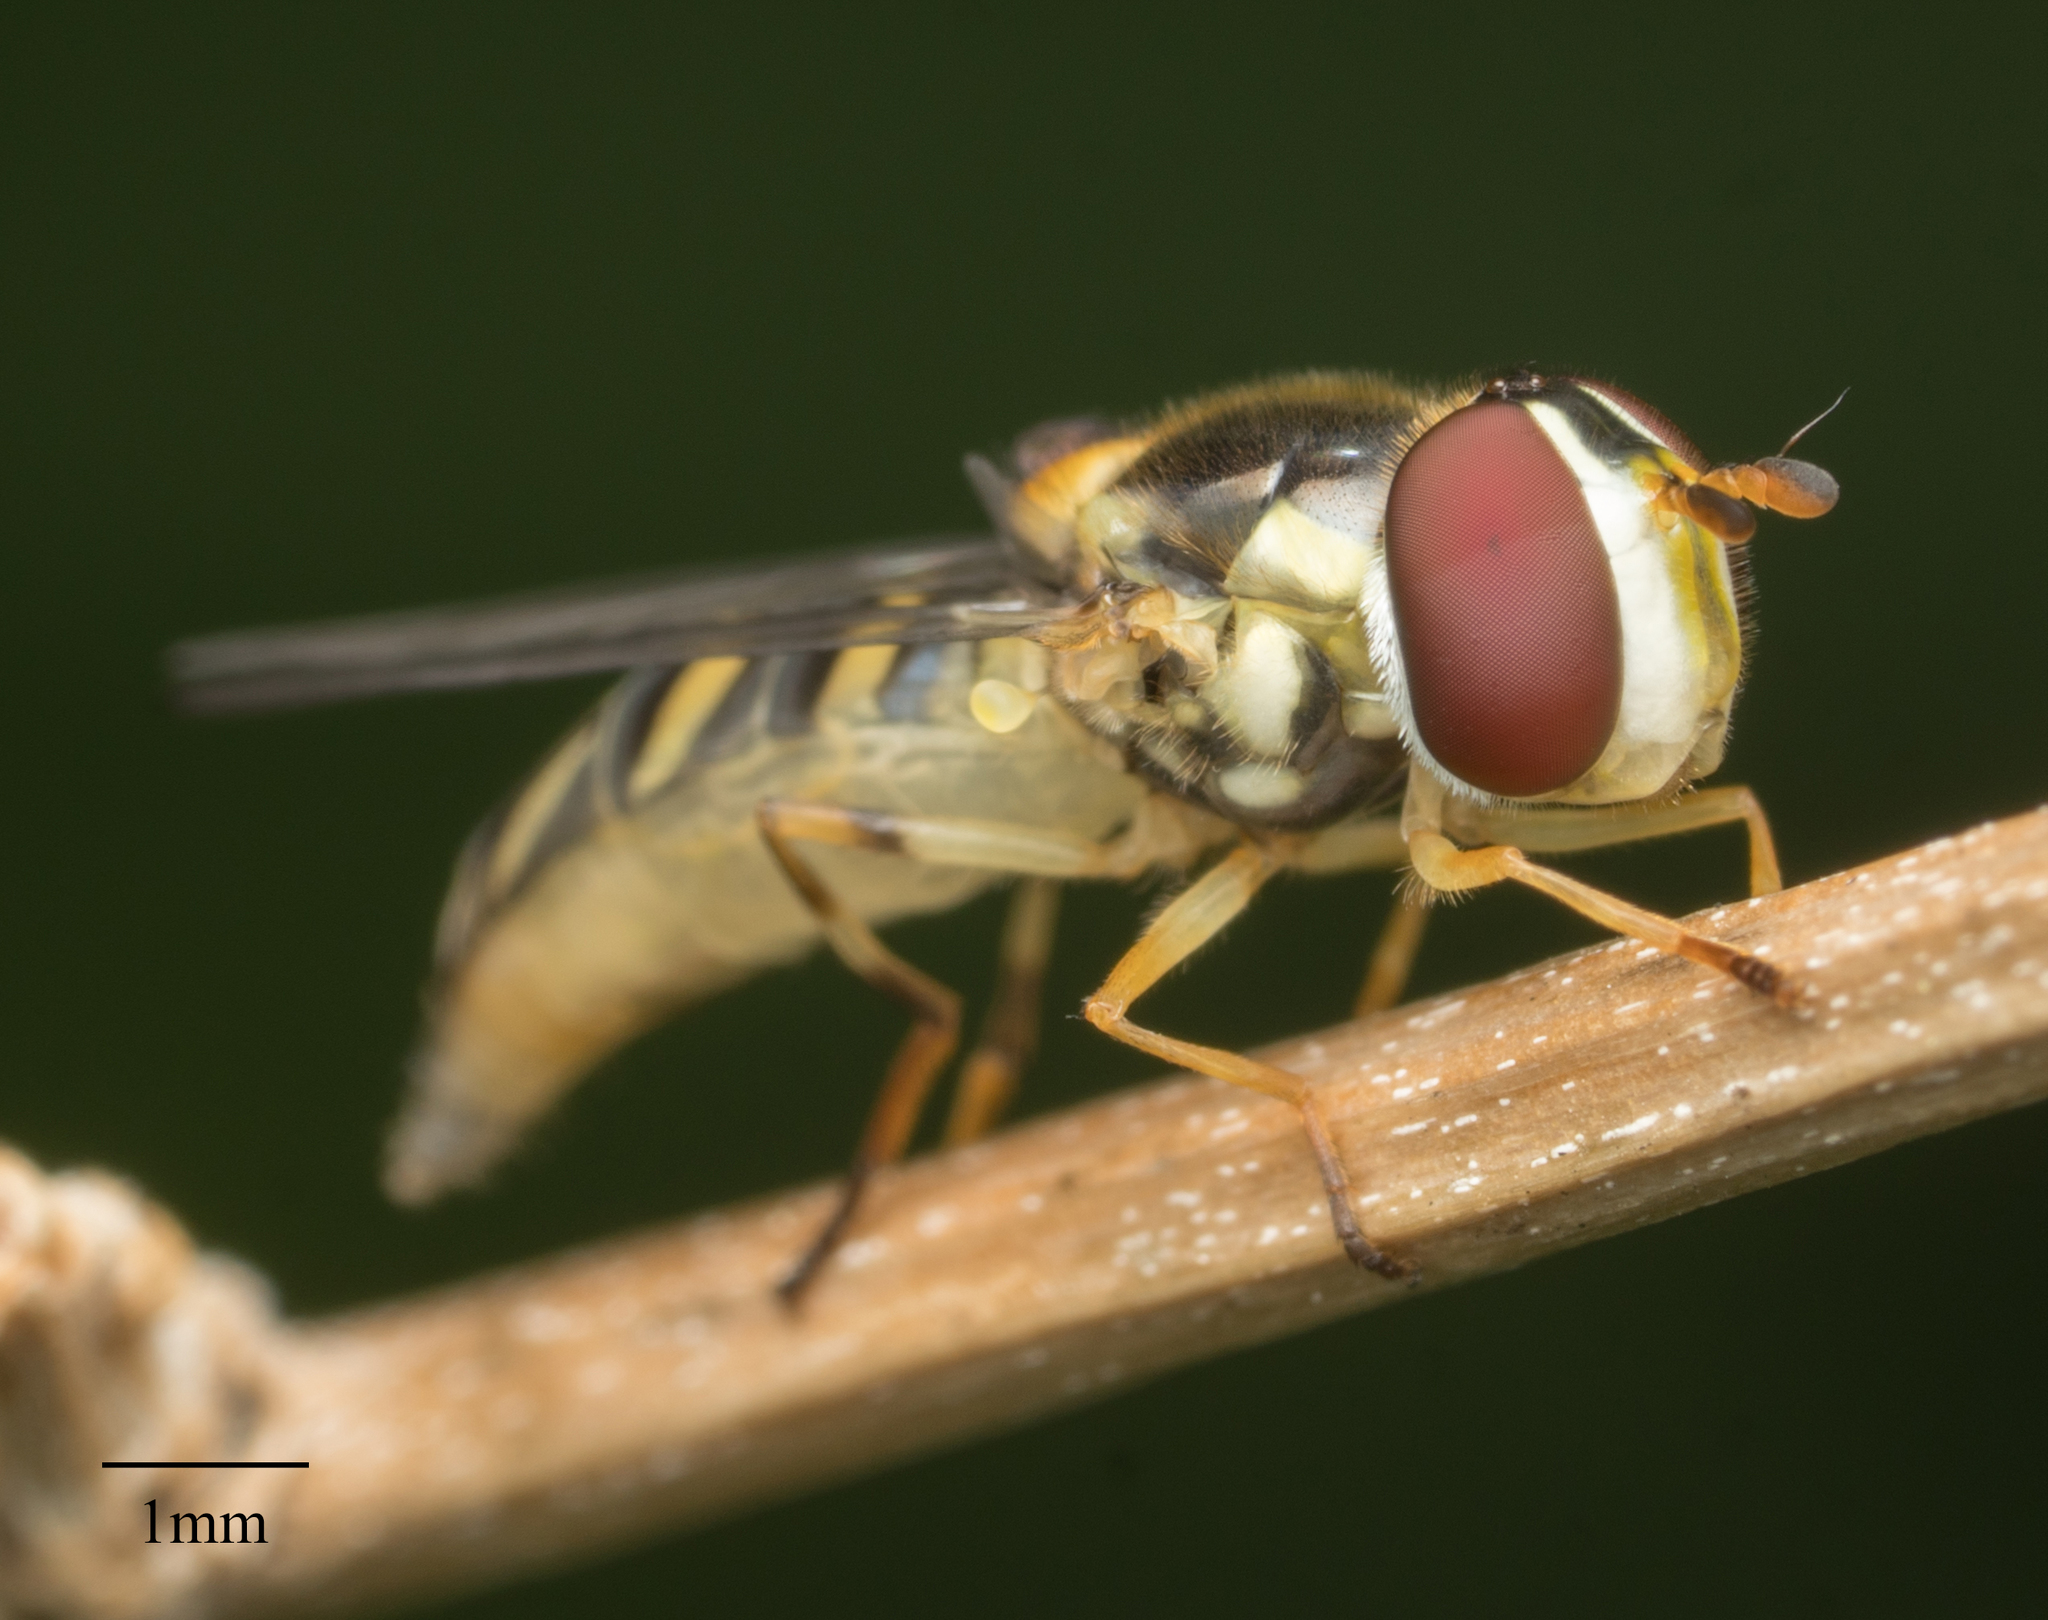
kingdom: Animalia
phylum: Arthropoda
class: Insecta
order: Diptera
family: Syrphidae
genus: Allograpta
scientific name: Allograpta obliqua
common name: Common oblique syrphid
